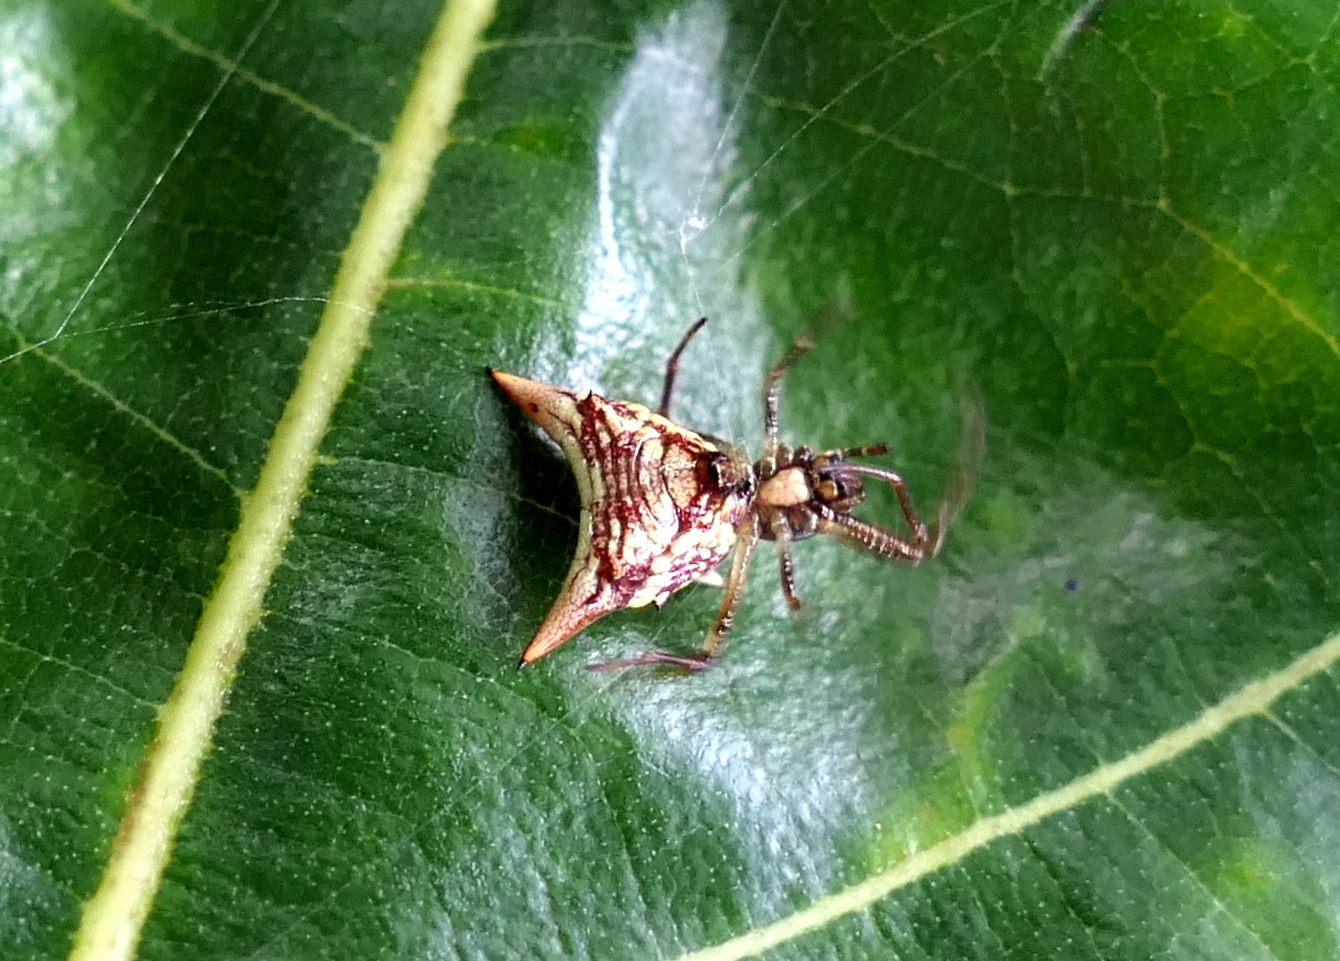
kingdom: Animalia
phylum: Arthropoda
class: Arachnida
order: Araneae
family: Araneidae
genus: Micrathena
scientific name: Micrathena evansi
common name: Orb weavers
